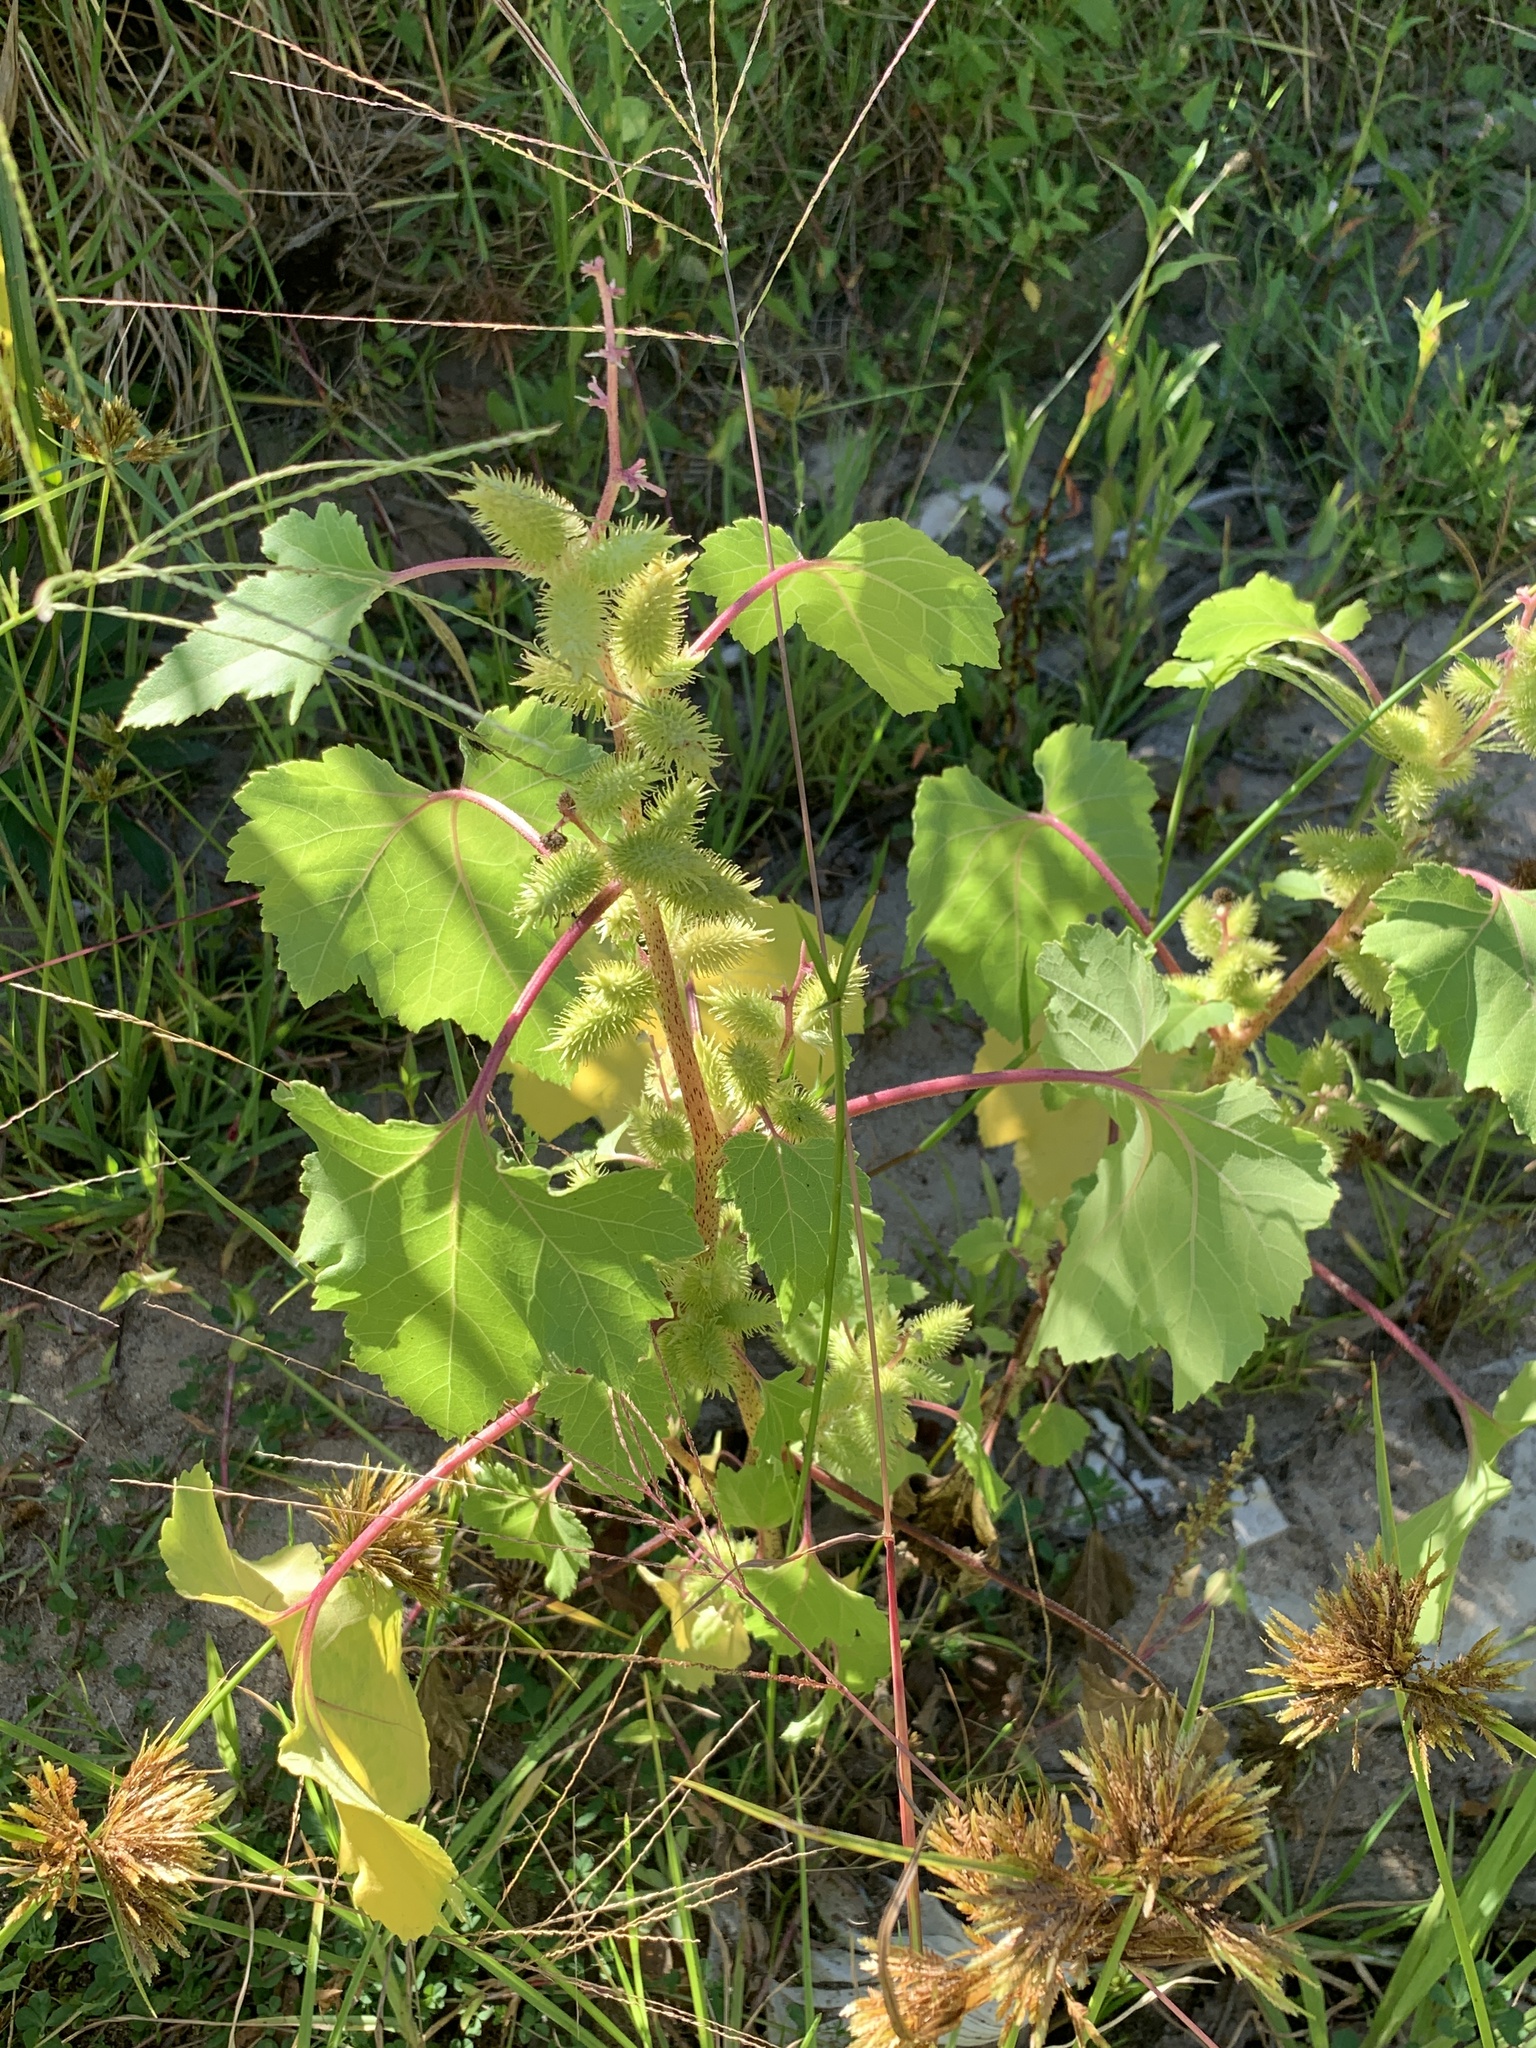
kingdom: Plantae
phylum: Tracheophyta
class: Magnoliopsida
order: Asterales
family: Asteraceae
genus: Xanthium
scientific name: Xanthium strumarium
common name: Rough cocklebur
